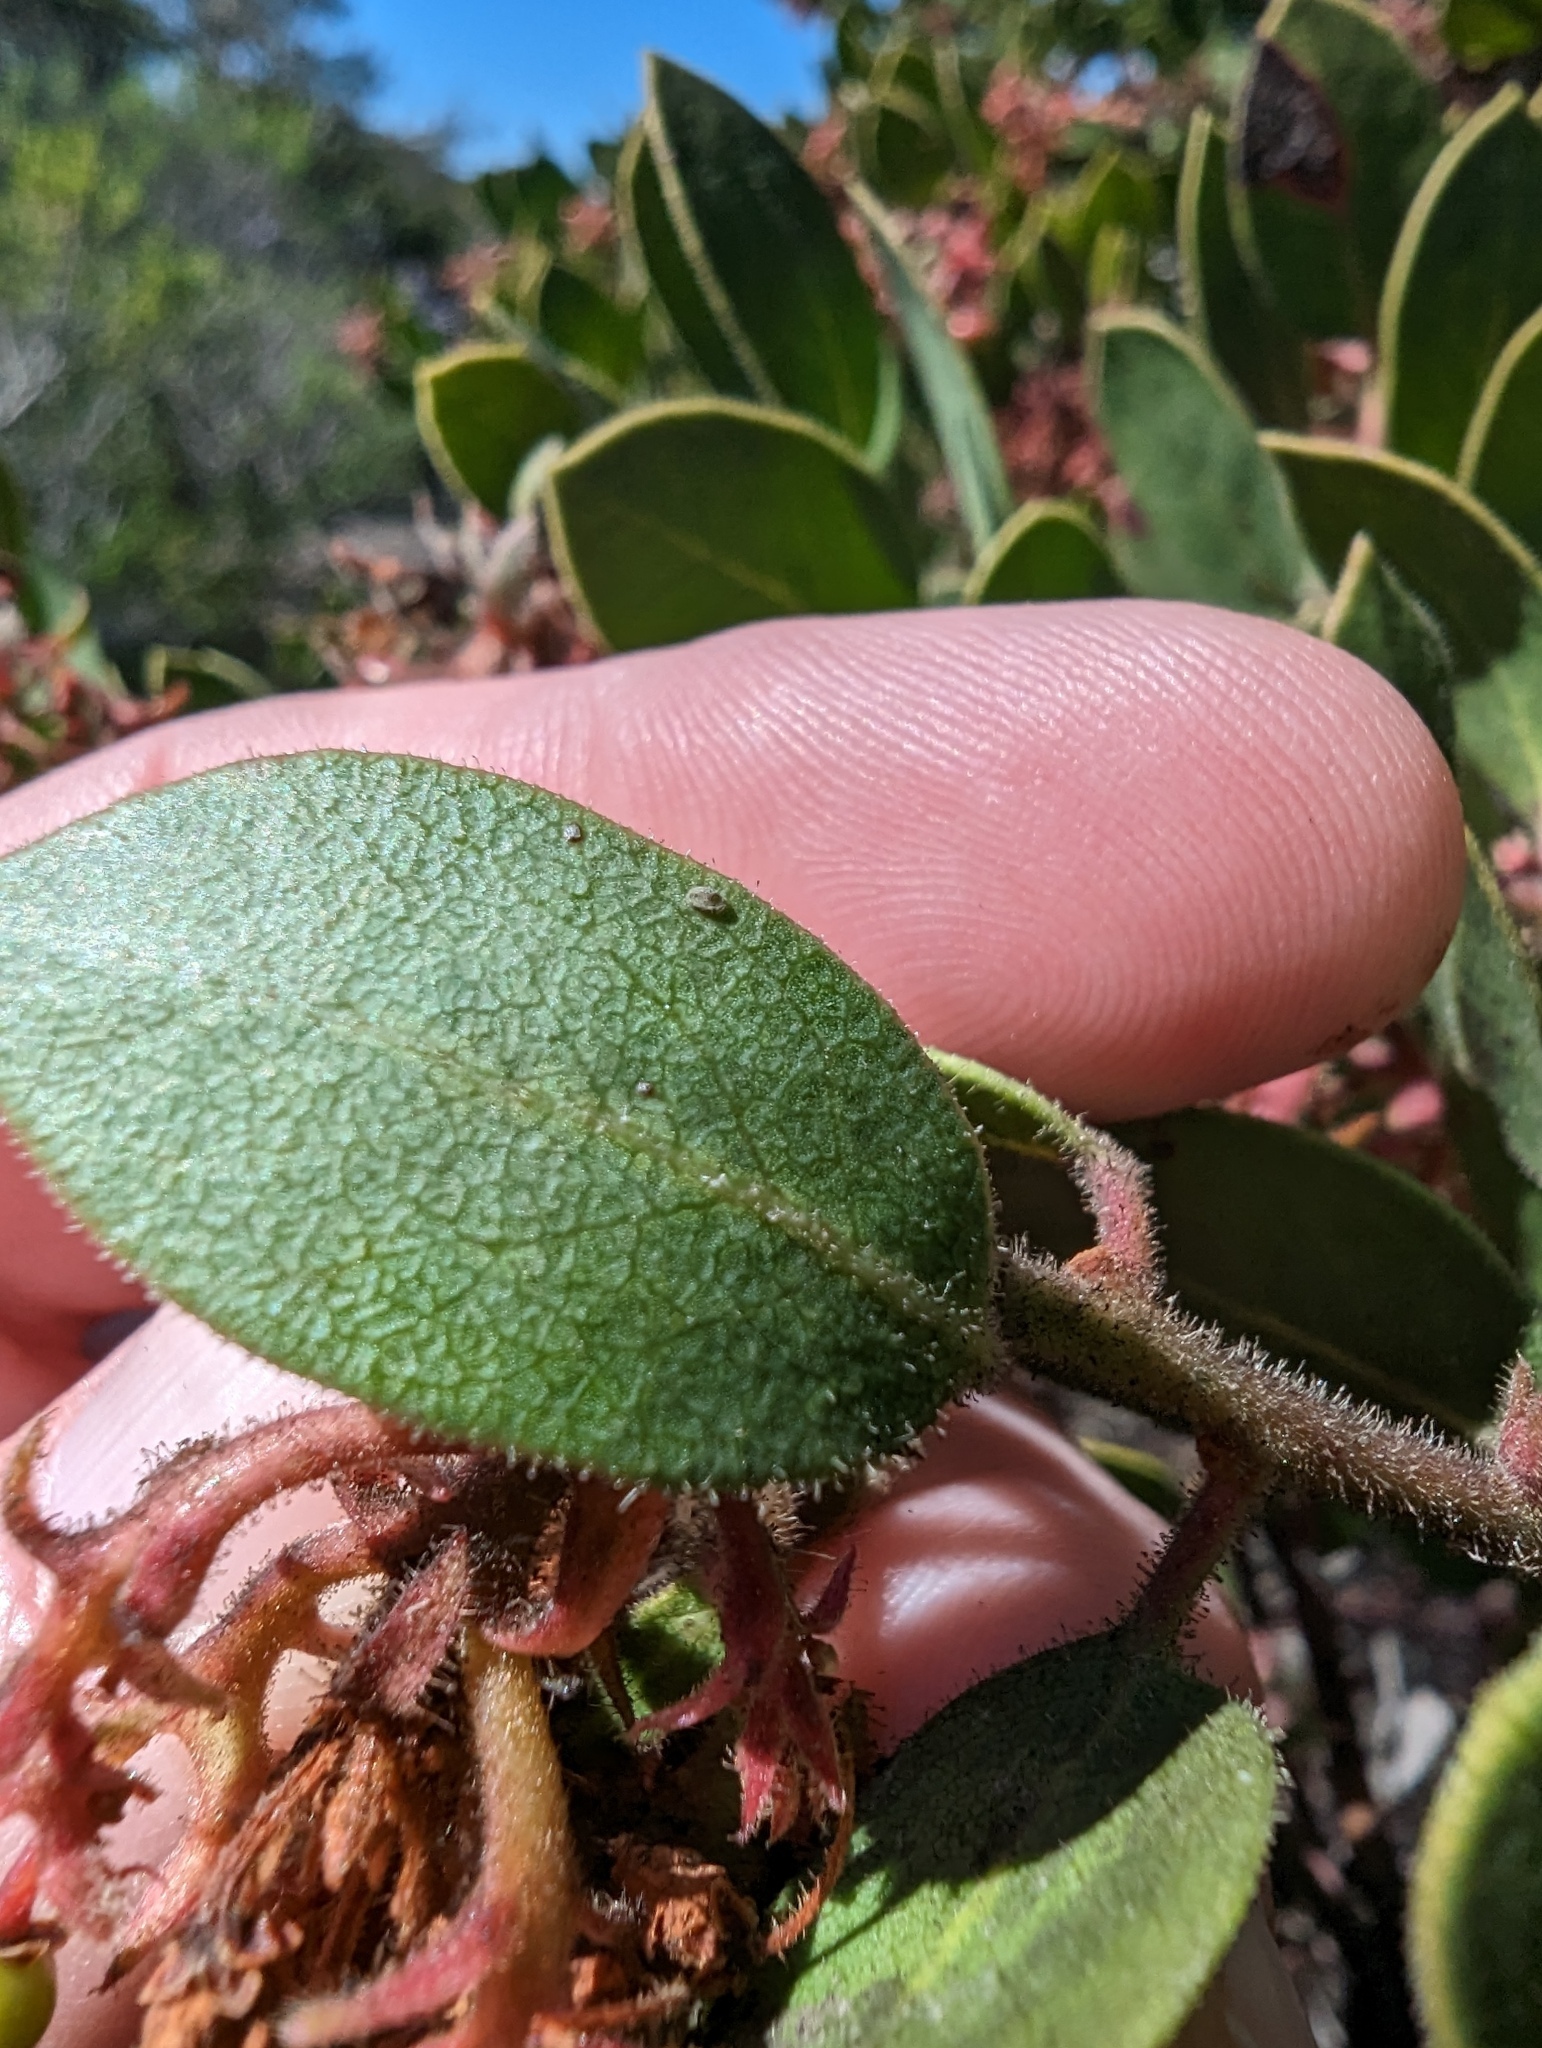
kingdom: Plantae
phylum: Tracheophyta
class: Magnoliopsida
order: Ericales
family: Ericaceae
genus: Arctostaphylos
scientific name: Arctostaphylos montereyensis
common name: Monterey manzanita
